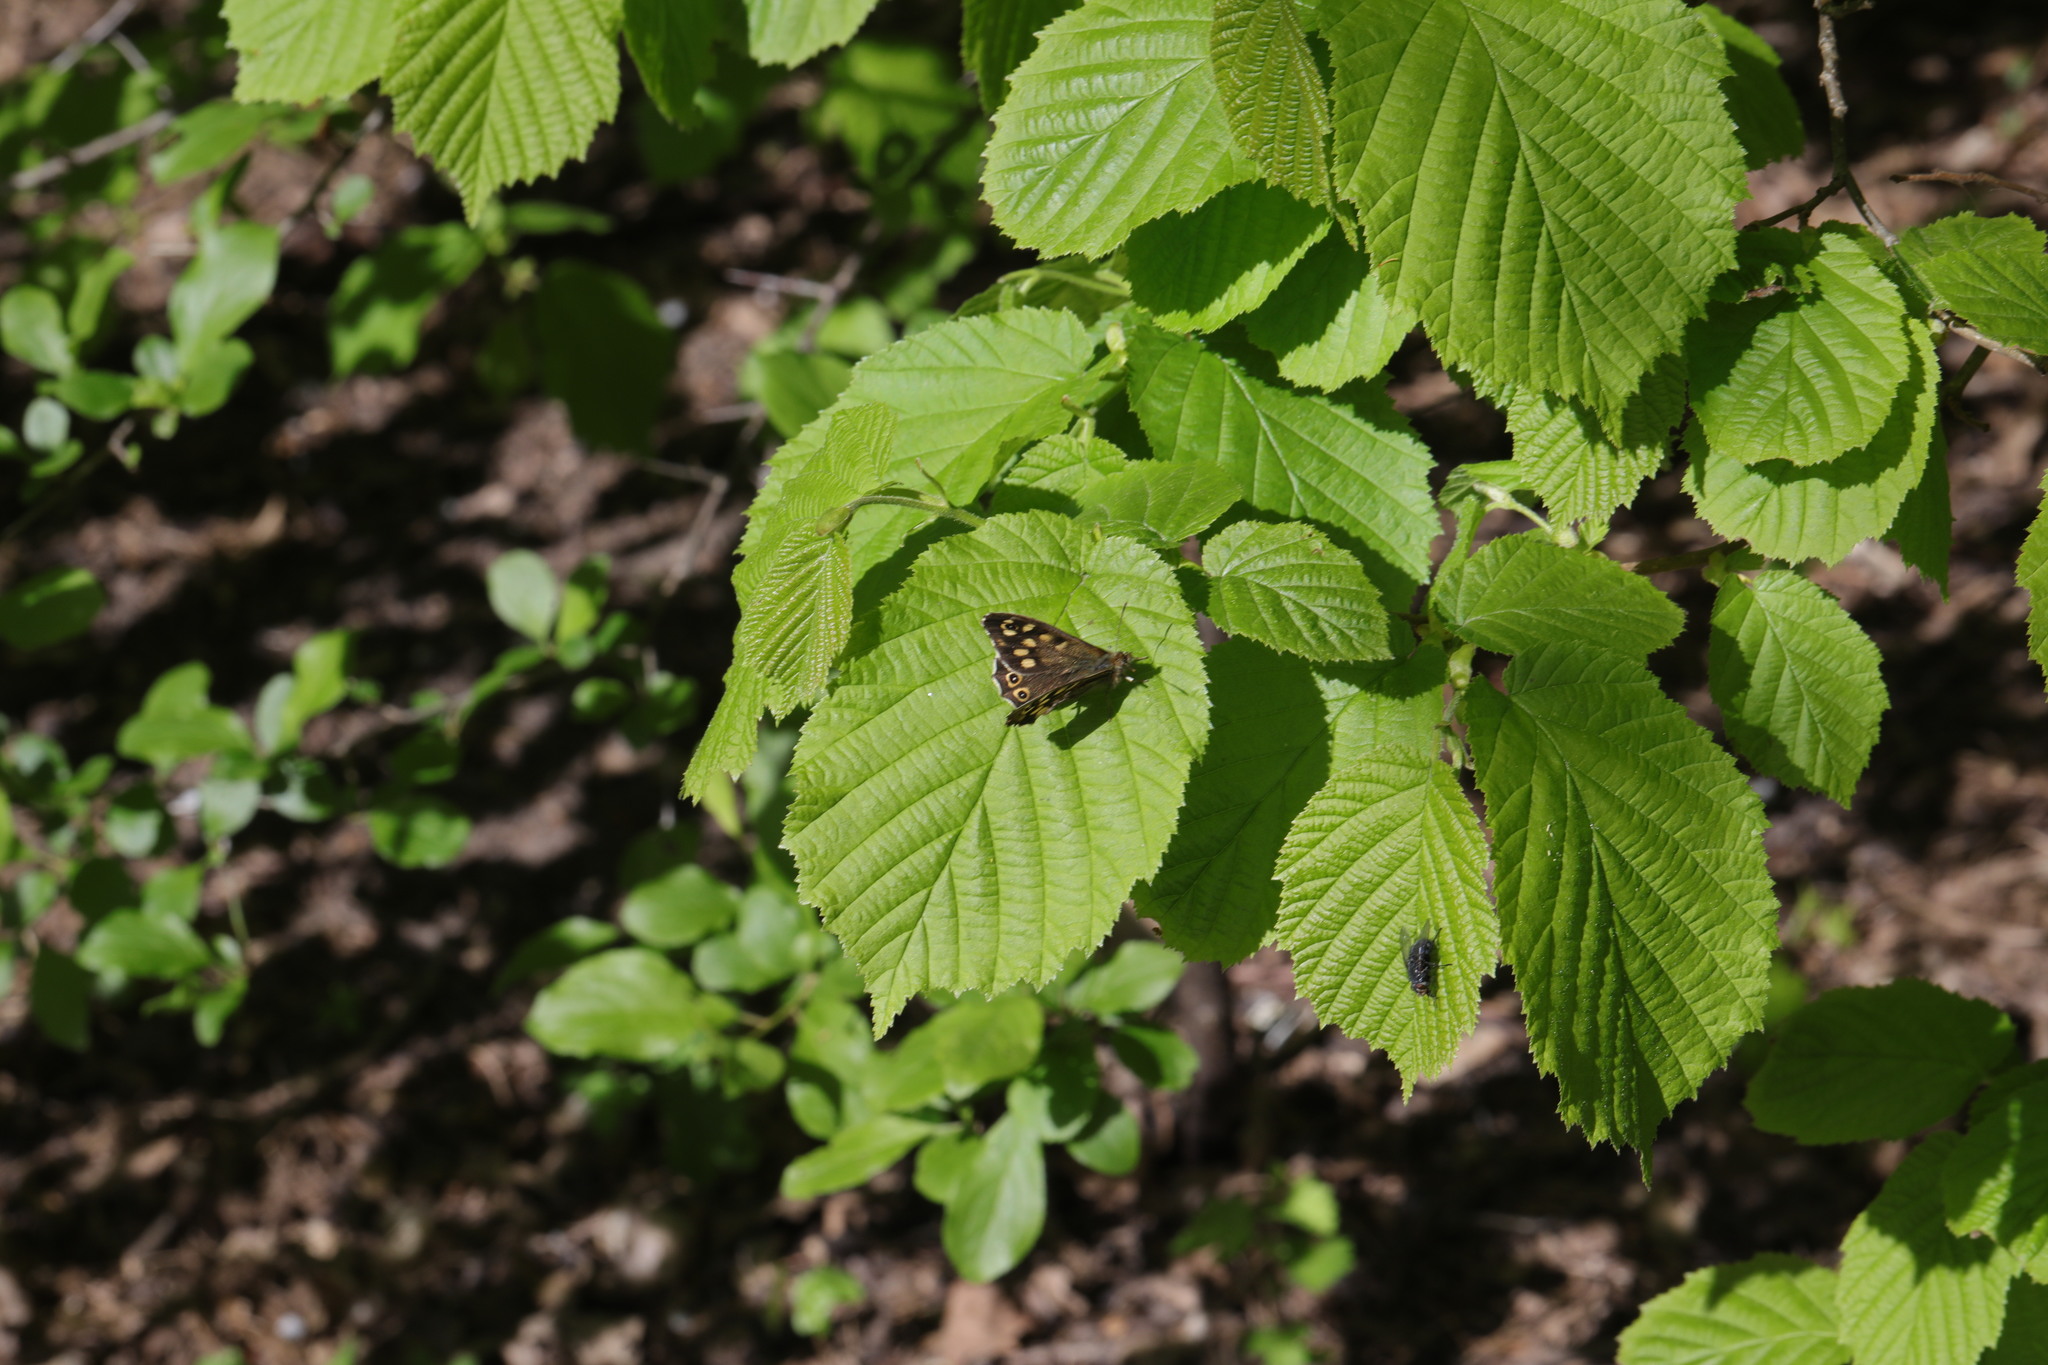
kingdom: Animalia
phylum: Arthropoda
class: Insecta
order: Lepidoptera
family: Nymphalidae
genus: Pararge
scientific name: Pararge aegeria
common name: Speckled wood
